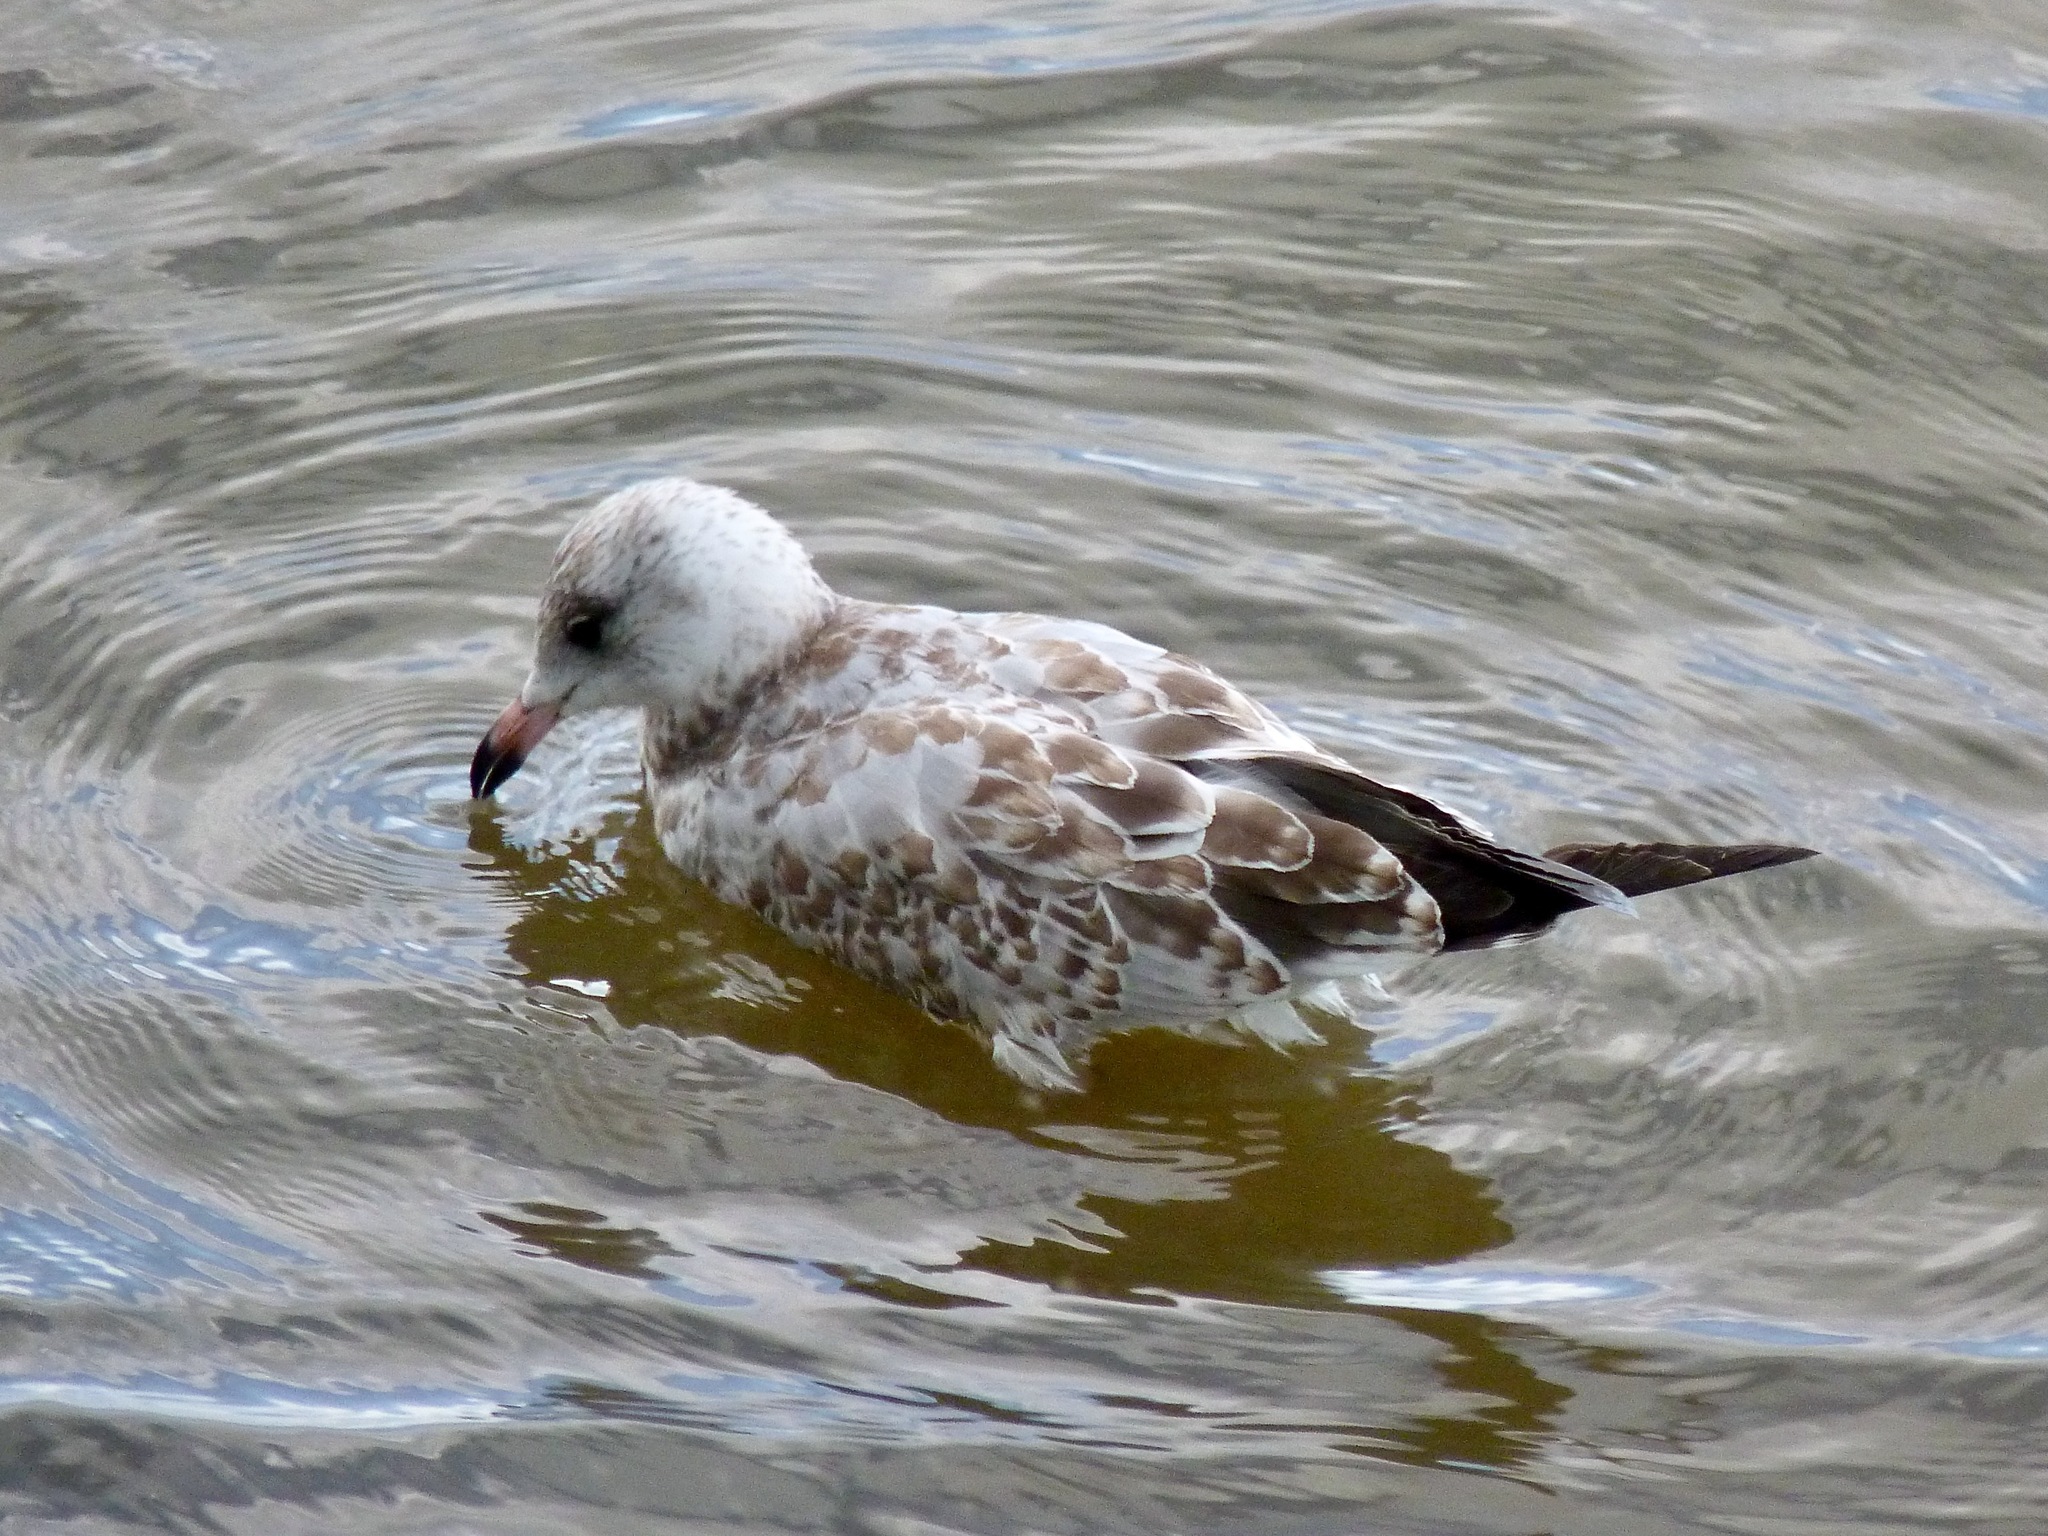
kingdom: Animalia
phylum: Chordata
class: Aves
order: Charadriiformes
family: Laridae
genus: Larus
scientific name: Larus delawarensis
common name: Ring-billed gull
